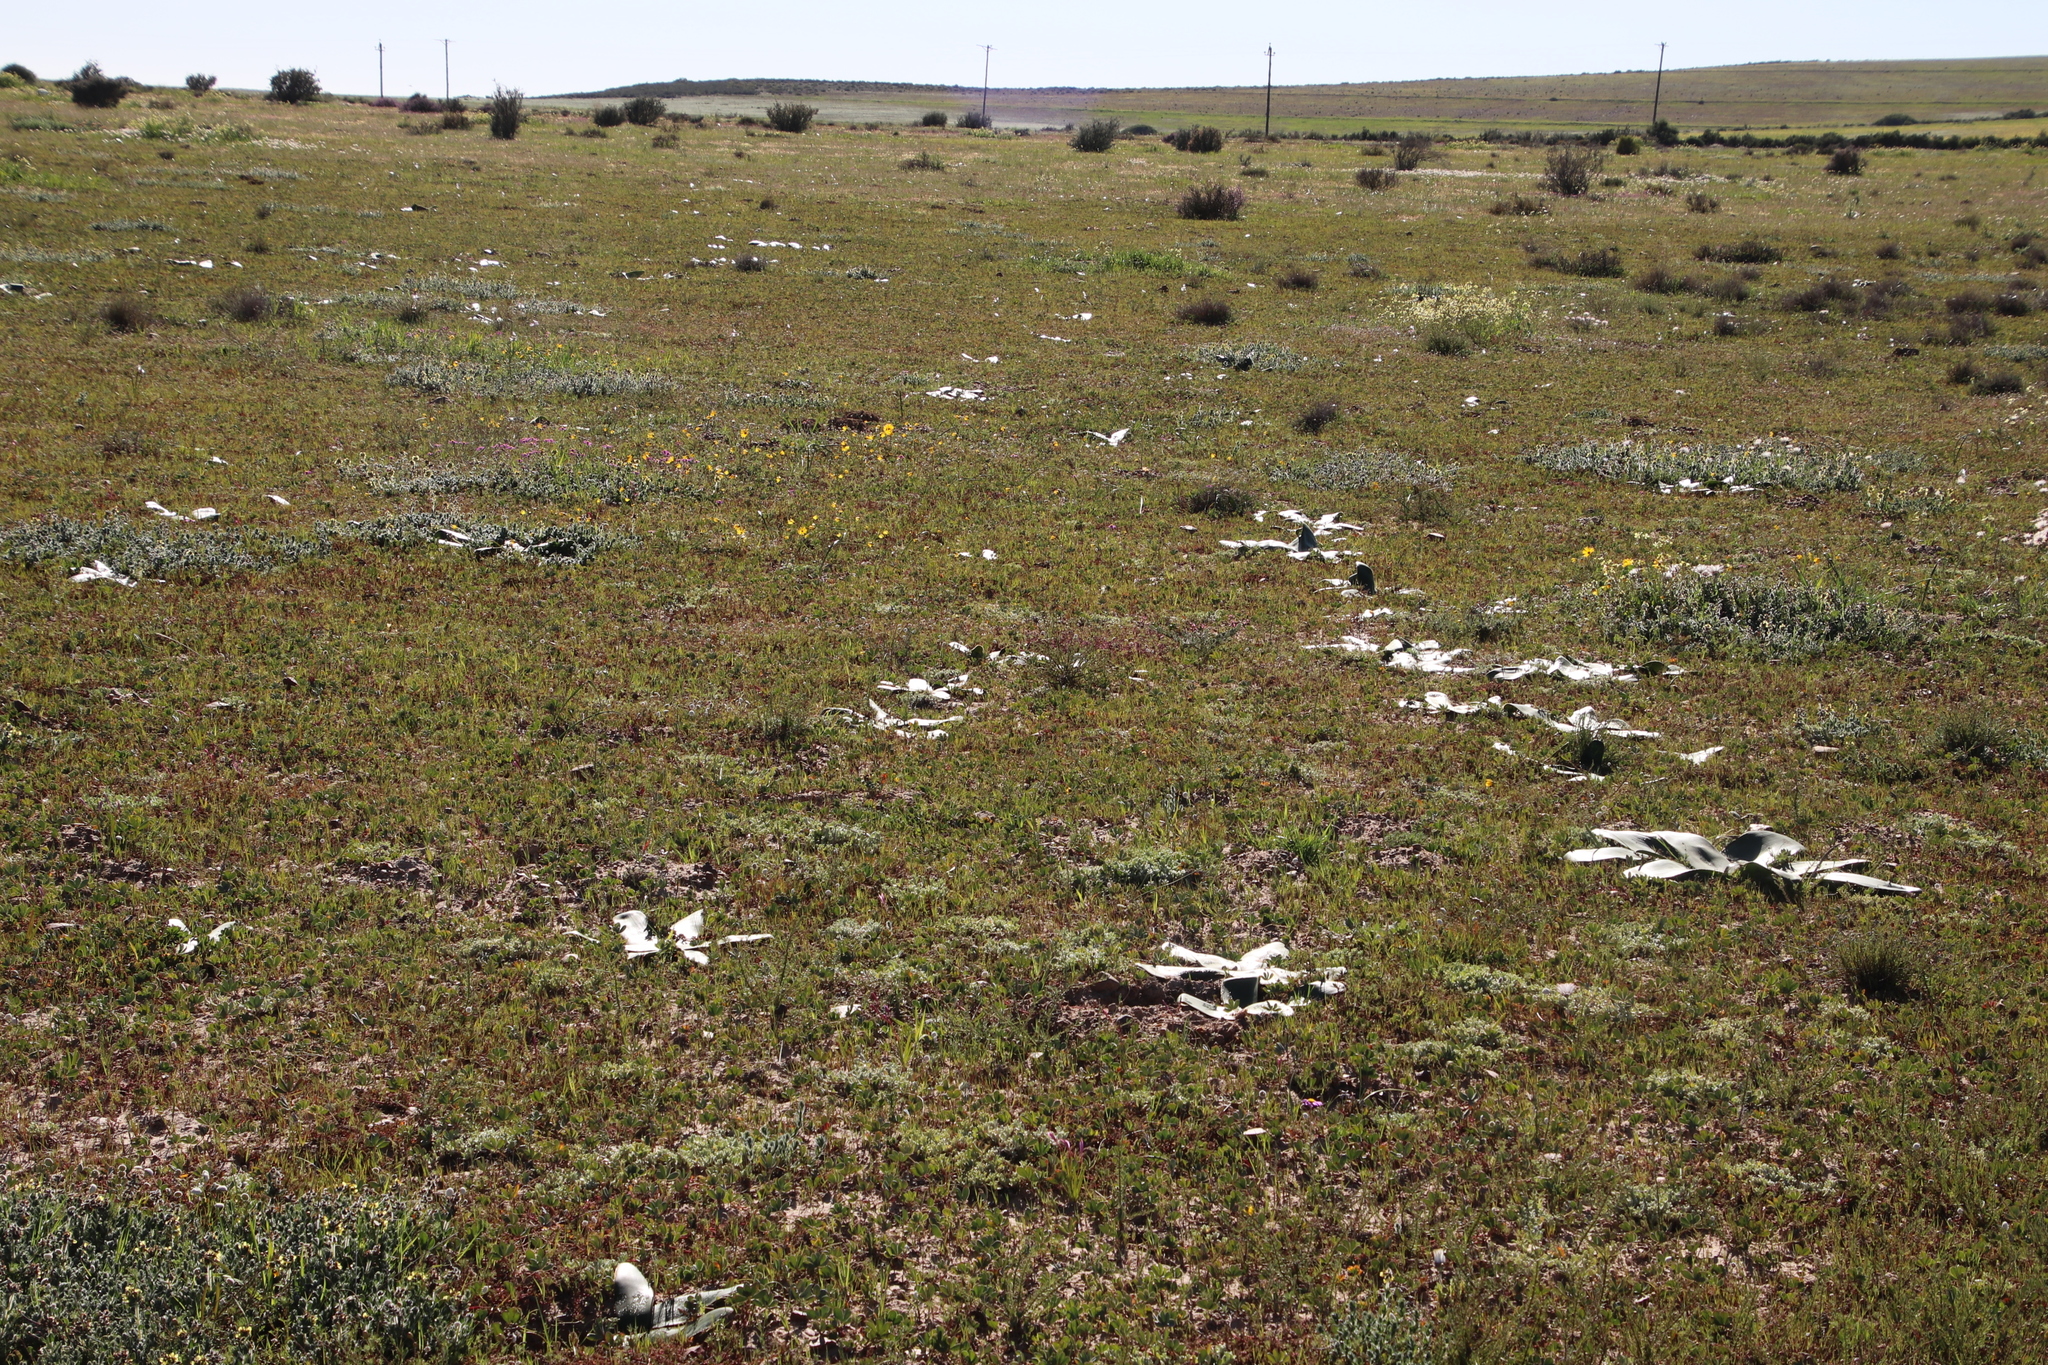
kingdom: Plantae
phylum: Tracheophyta
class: Liliopsida
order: Asparagales
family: Amaryllidaceae
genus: Crossyne
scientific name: Crossyne flava
